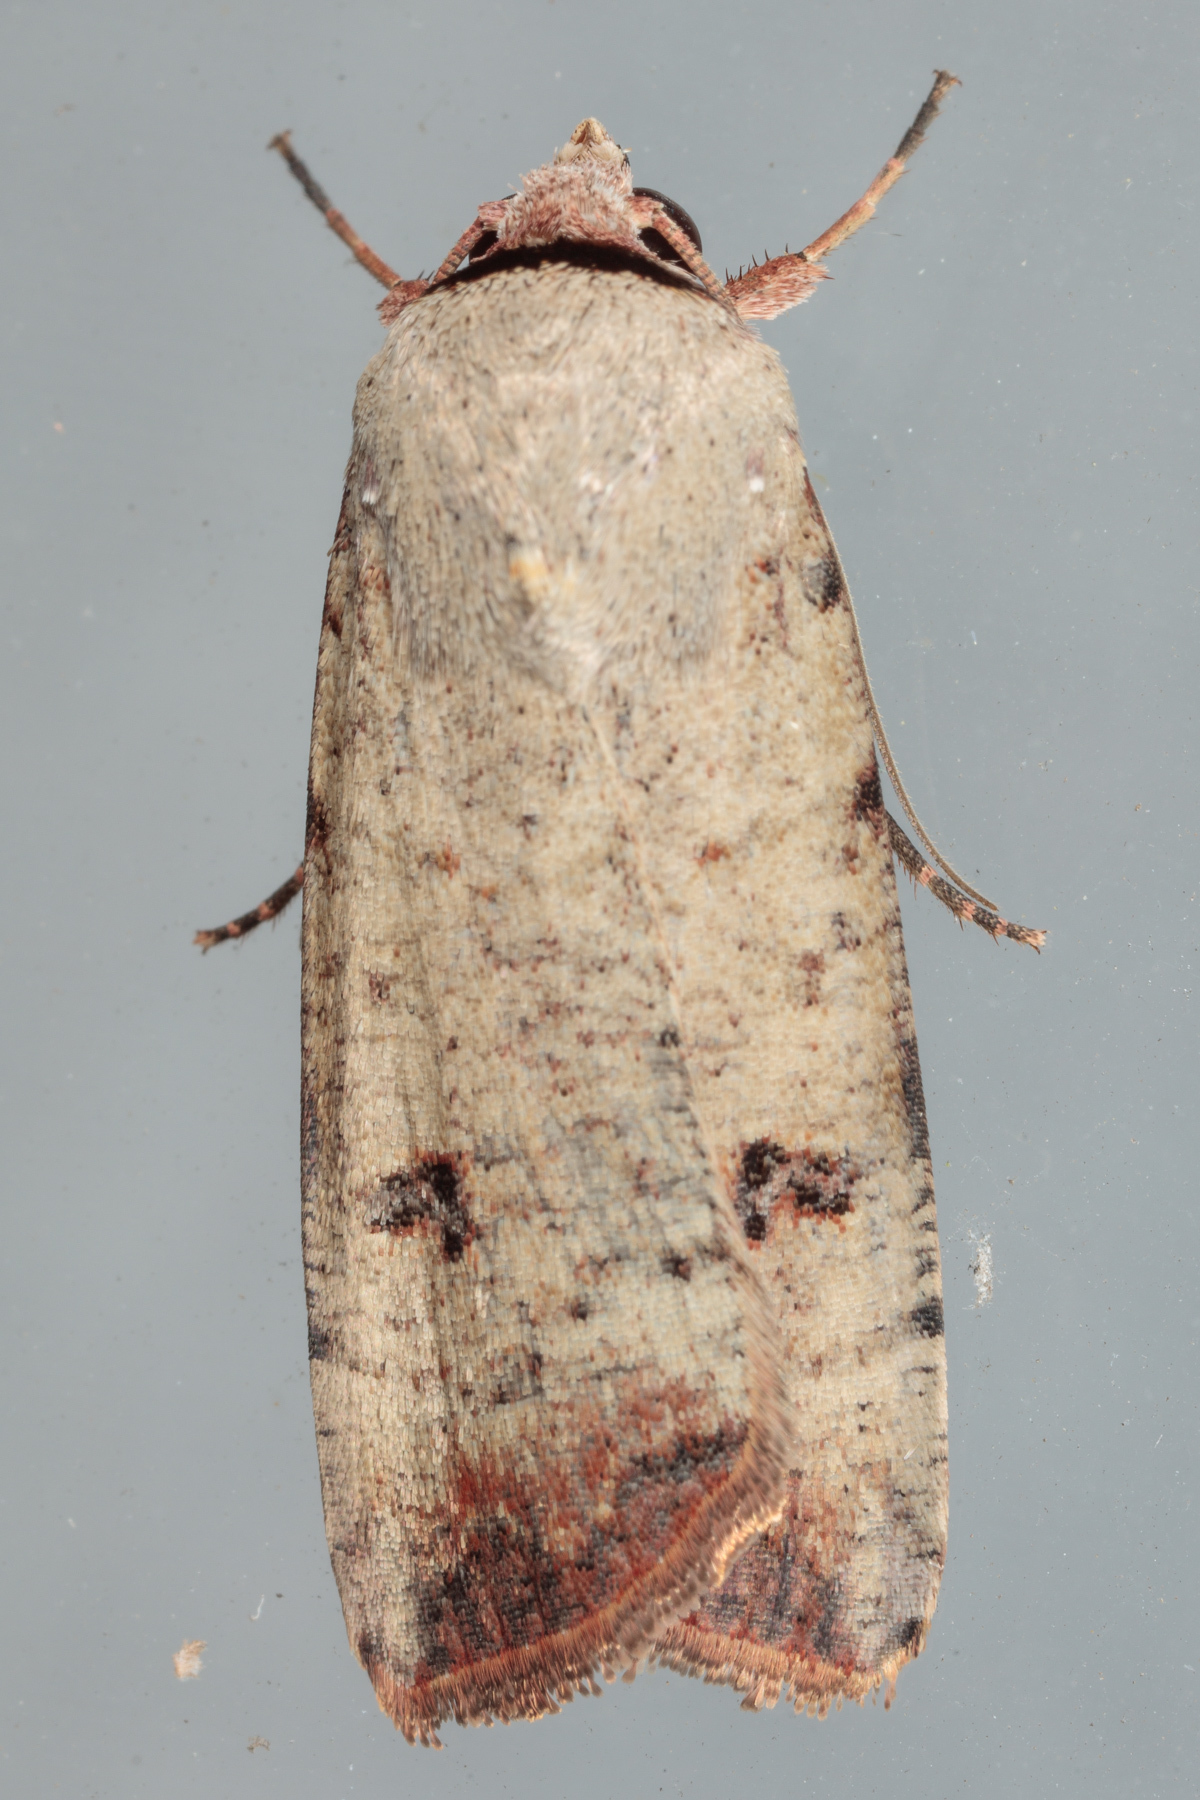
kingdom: Animalia
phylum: Arthropoda
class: Insecta
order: Lepidoptera
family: Noctuidae
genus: Anicla
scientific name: Anicla infecta
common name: Green cutworm
